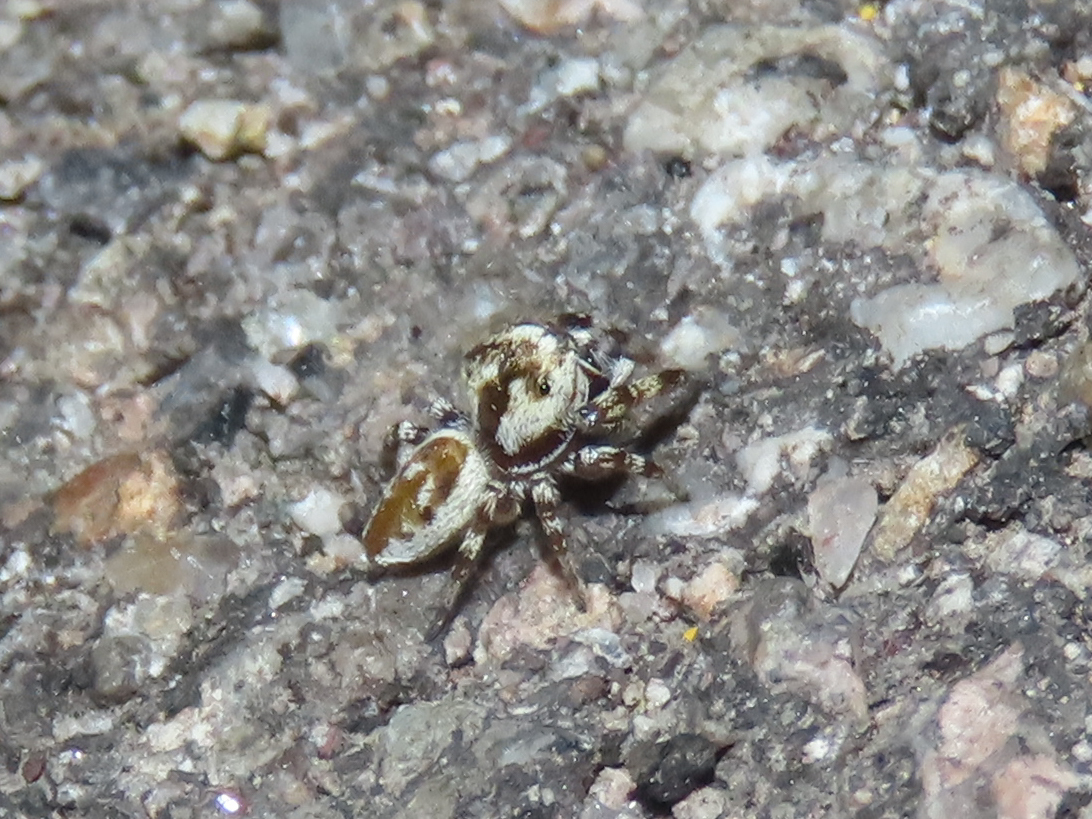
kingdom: Animalia
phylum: Arthropoda
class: Arachnida
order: Araneae
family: Salticidae
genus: Metaphidippus
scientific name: Metaphidippus chera
